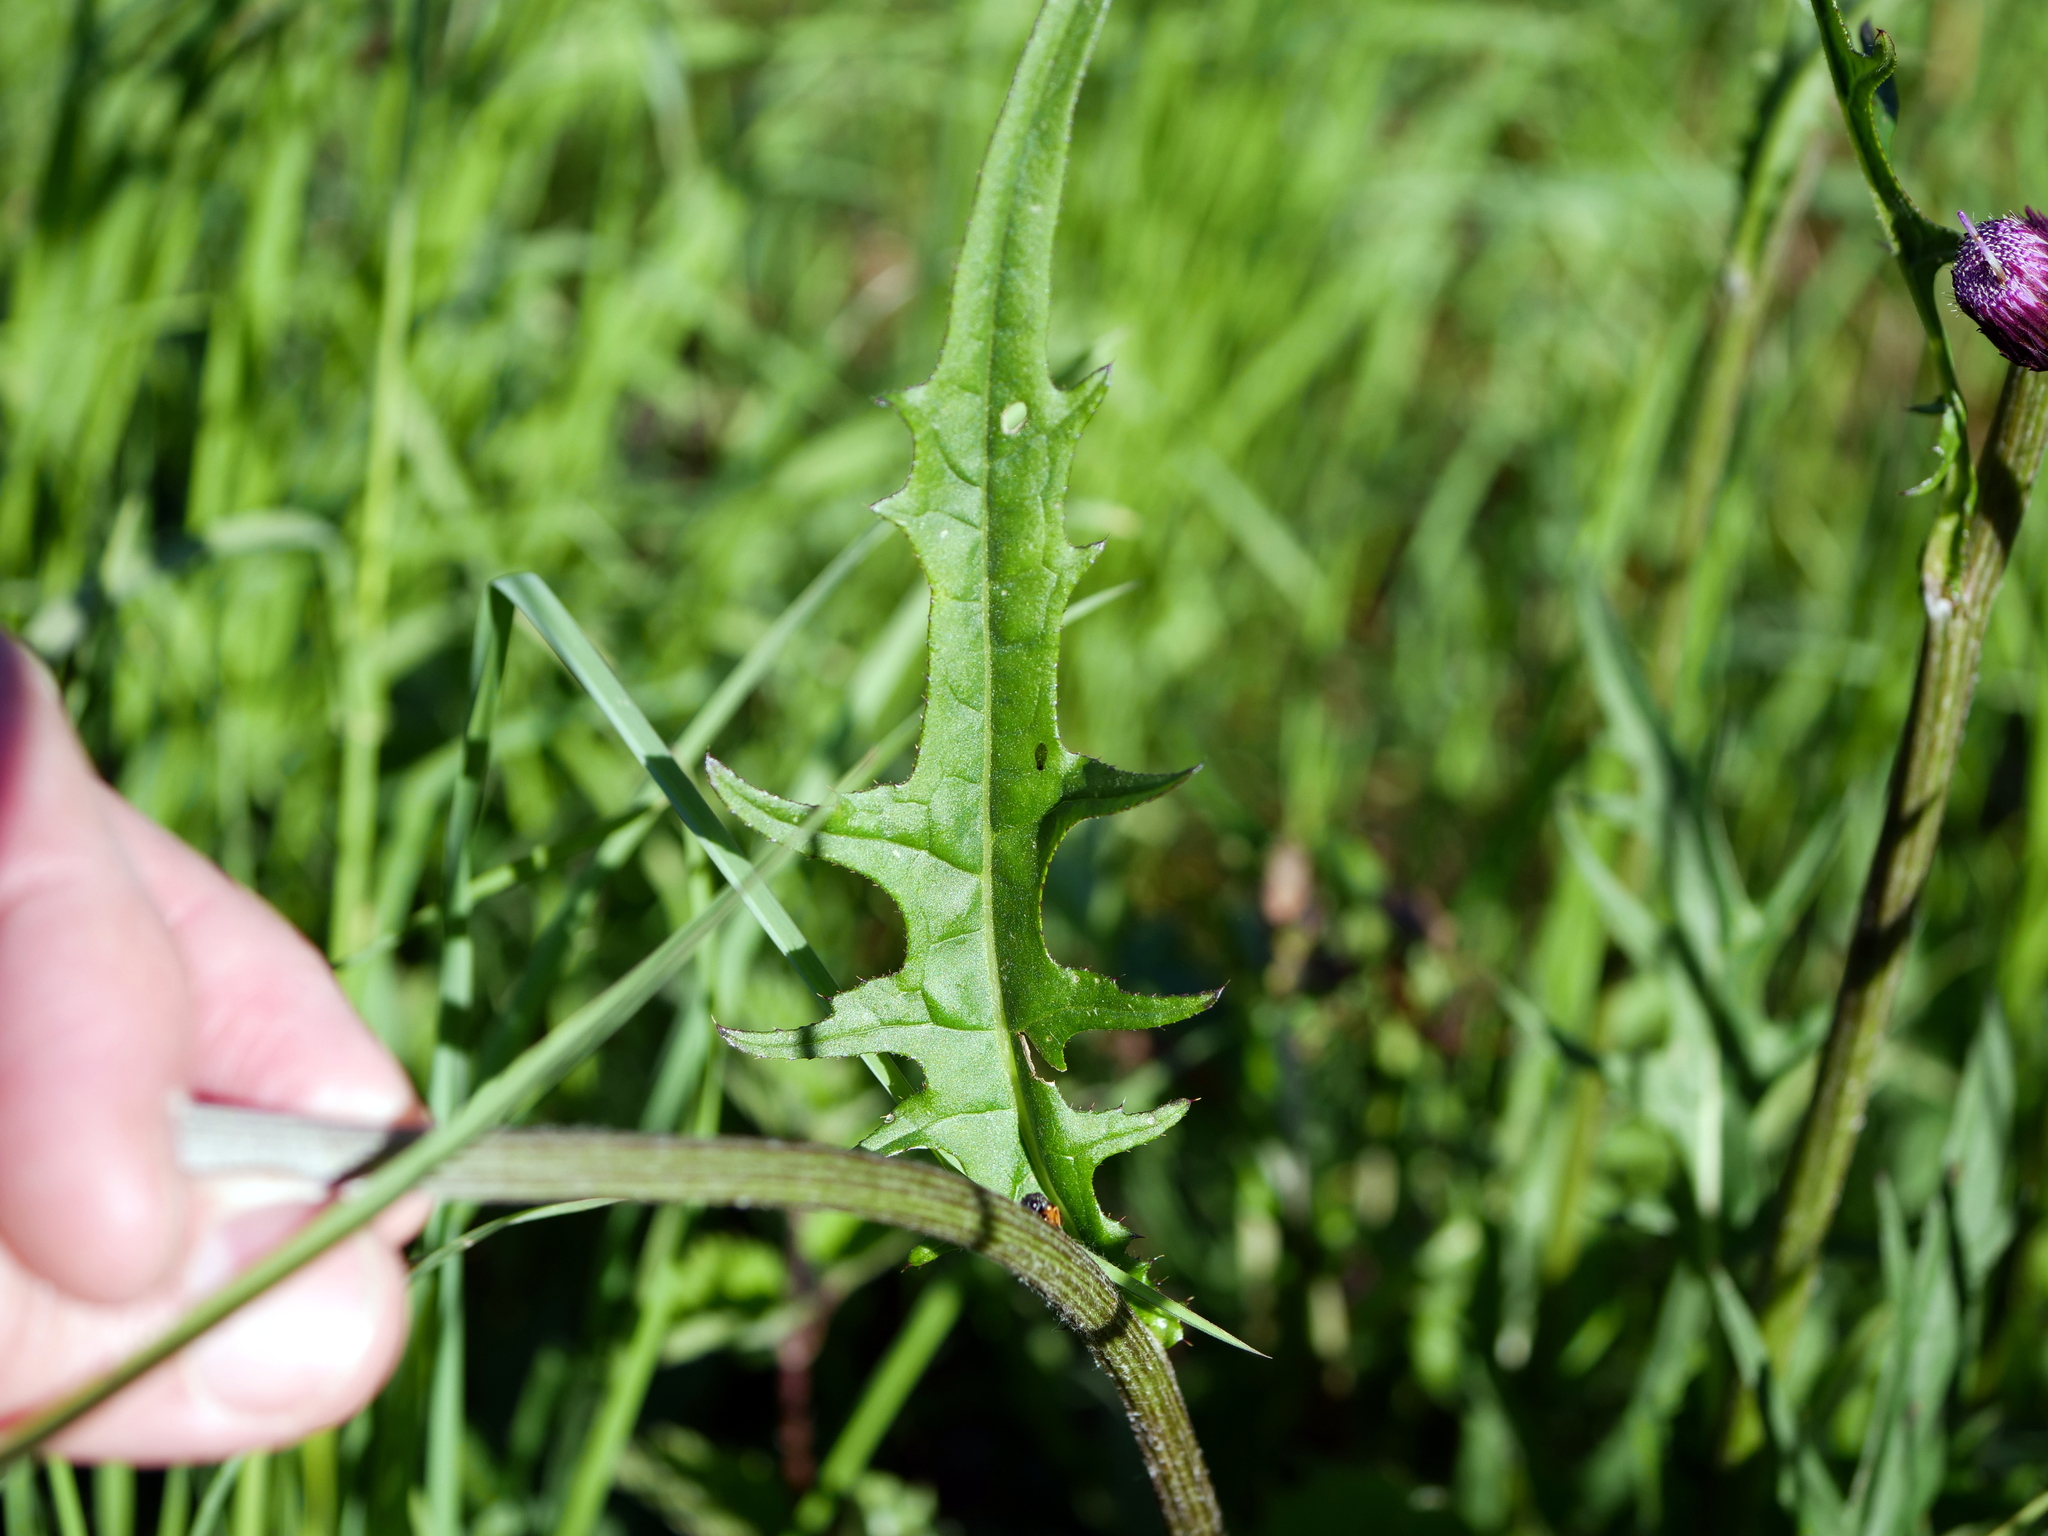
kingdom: Plantae
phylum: Tracheophyta
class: Magnoliopsida
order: Asterales
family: Asteraceae
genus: Cirsium
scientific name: Cirsium rivulare
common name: Brook thistle
